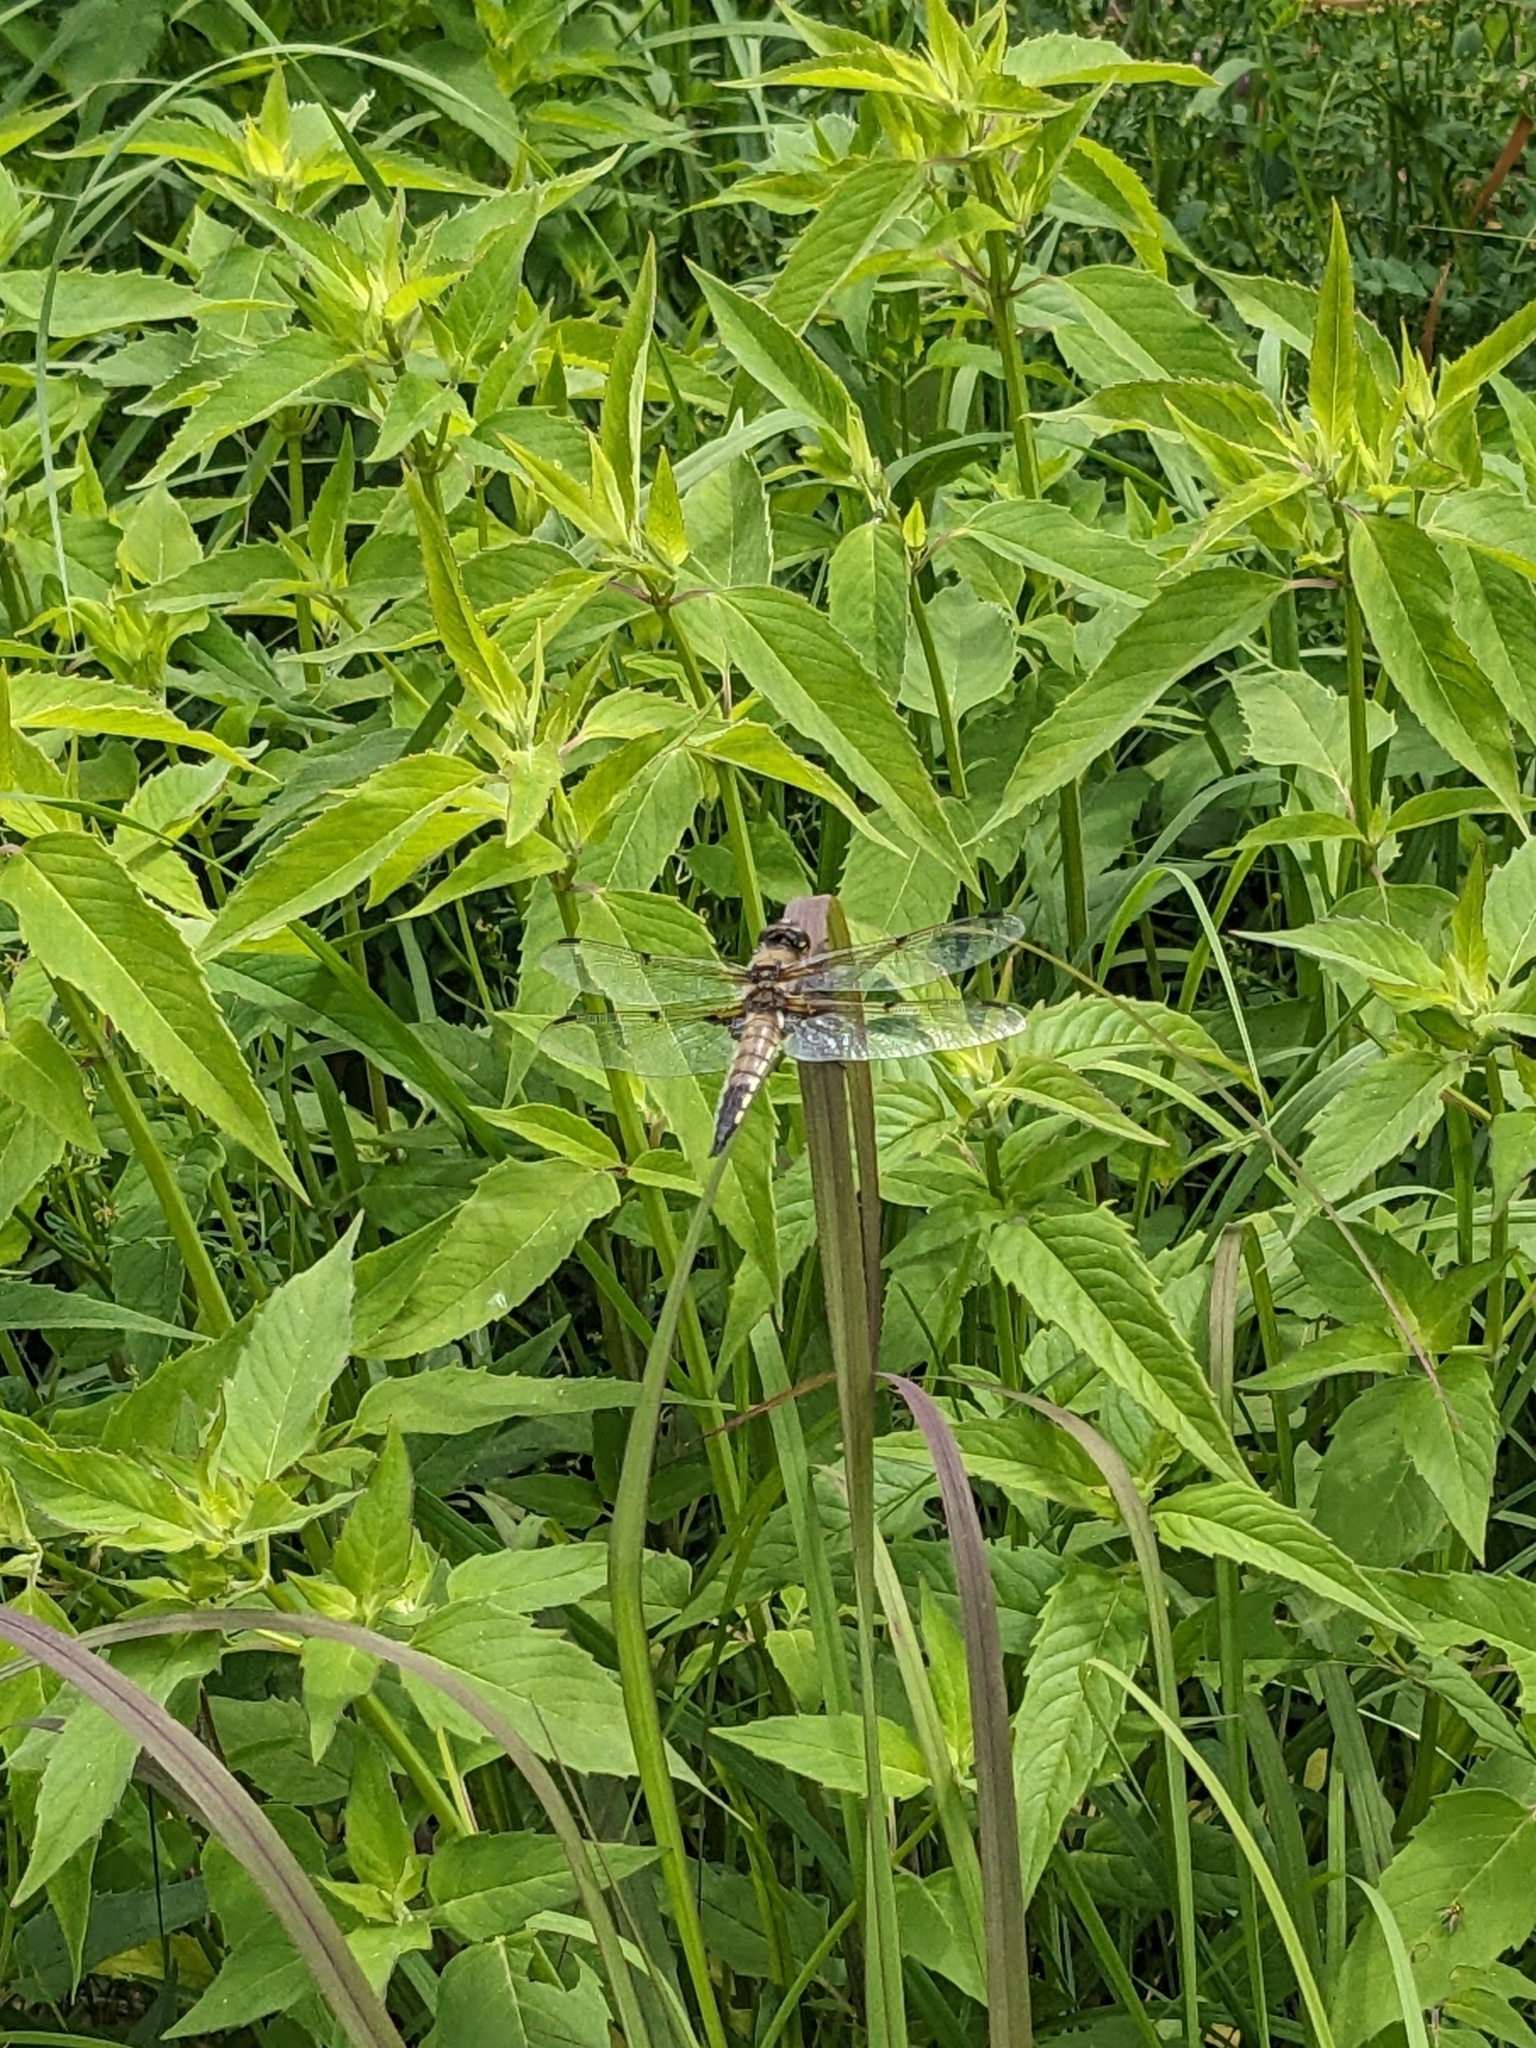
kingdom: Animalia
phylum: Arthropoda
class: Insecta
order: Odonata
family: Libellulidae
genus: Libellula
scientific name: Libellula quadrimaculata
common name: Four-spotted chaser
